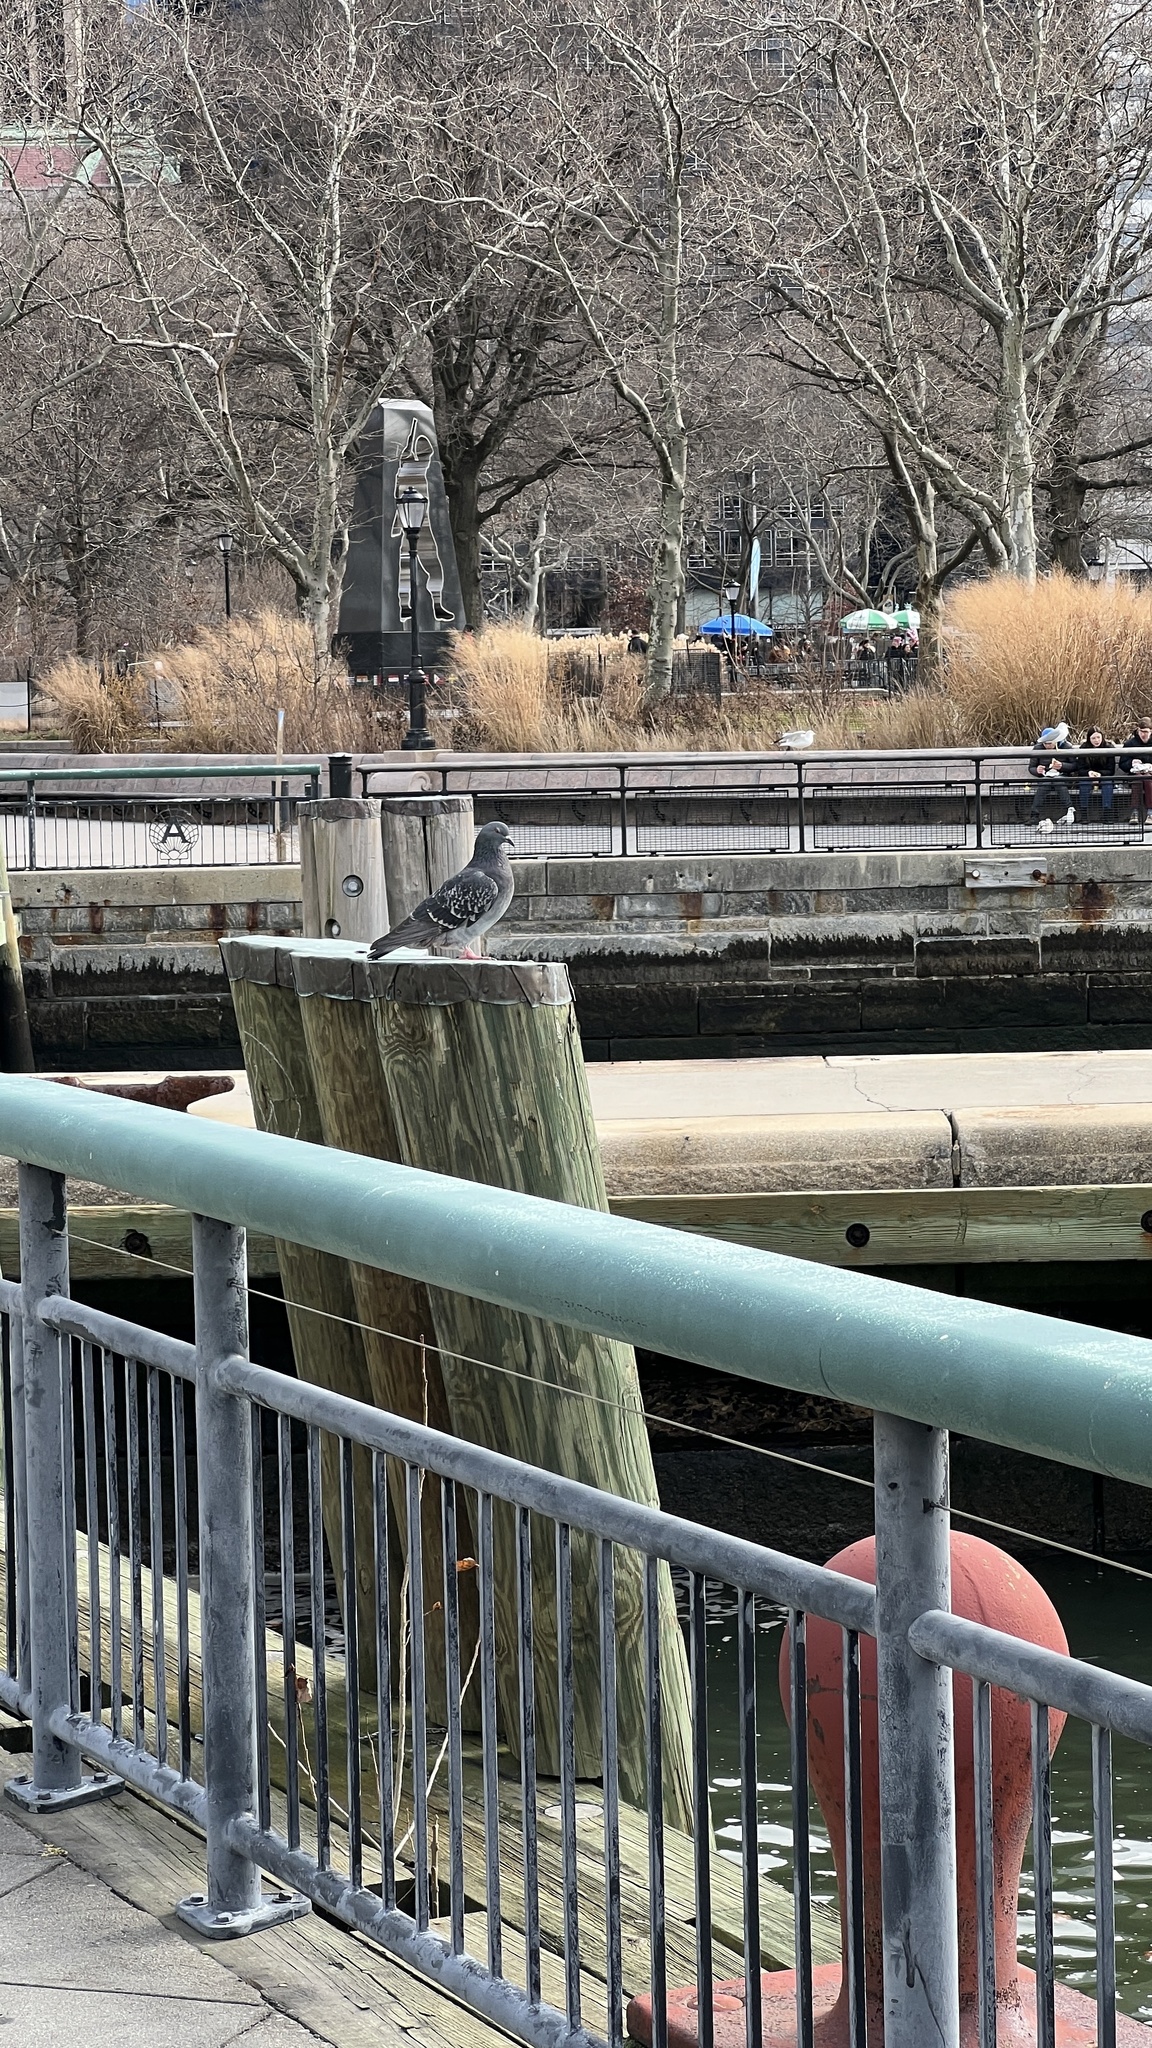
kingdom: Animalia
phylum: Chordata
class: Aves
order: Columbiformes
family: Columbidae
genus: Columba
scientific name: Columba livia
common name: Rock pigeon
